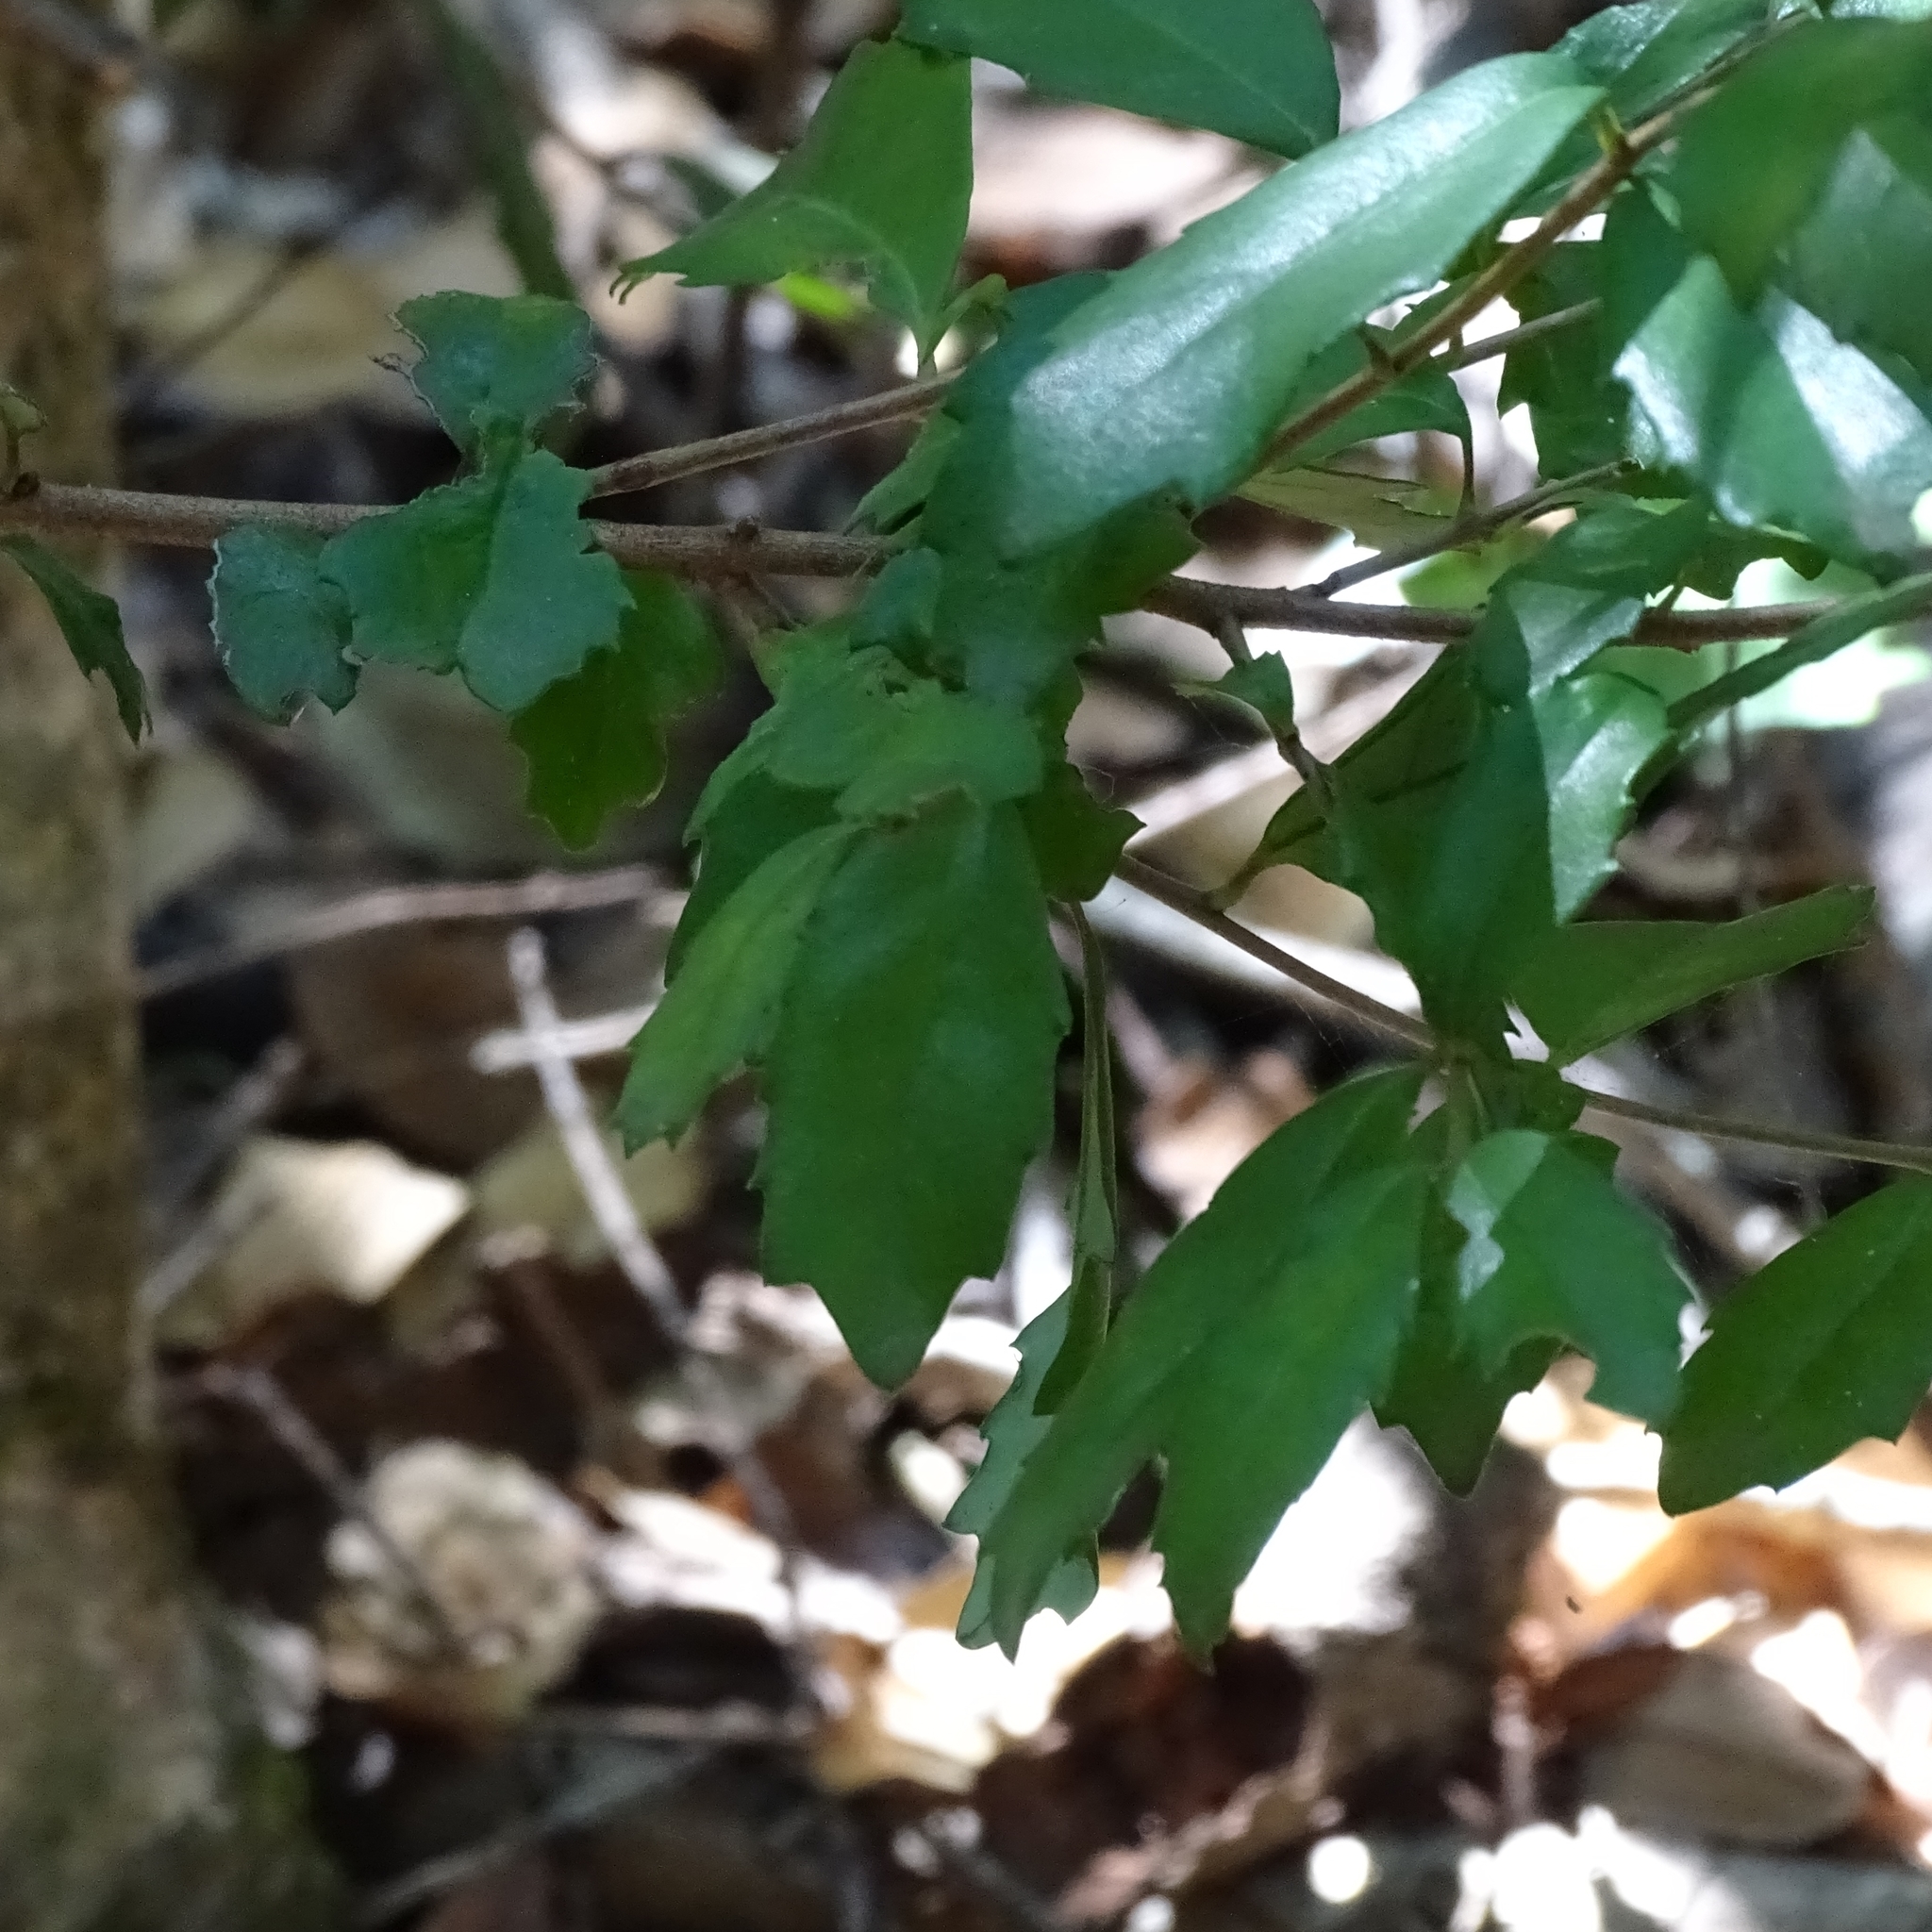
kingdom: Plantae
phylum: Tracheophyta
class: Magnoliopsida
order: Proteales
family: Proteaceae
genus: Lomatia
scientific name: Lomatia dentata
